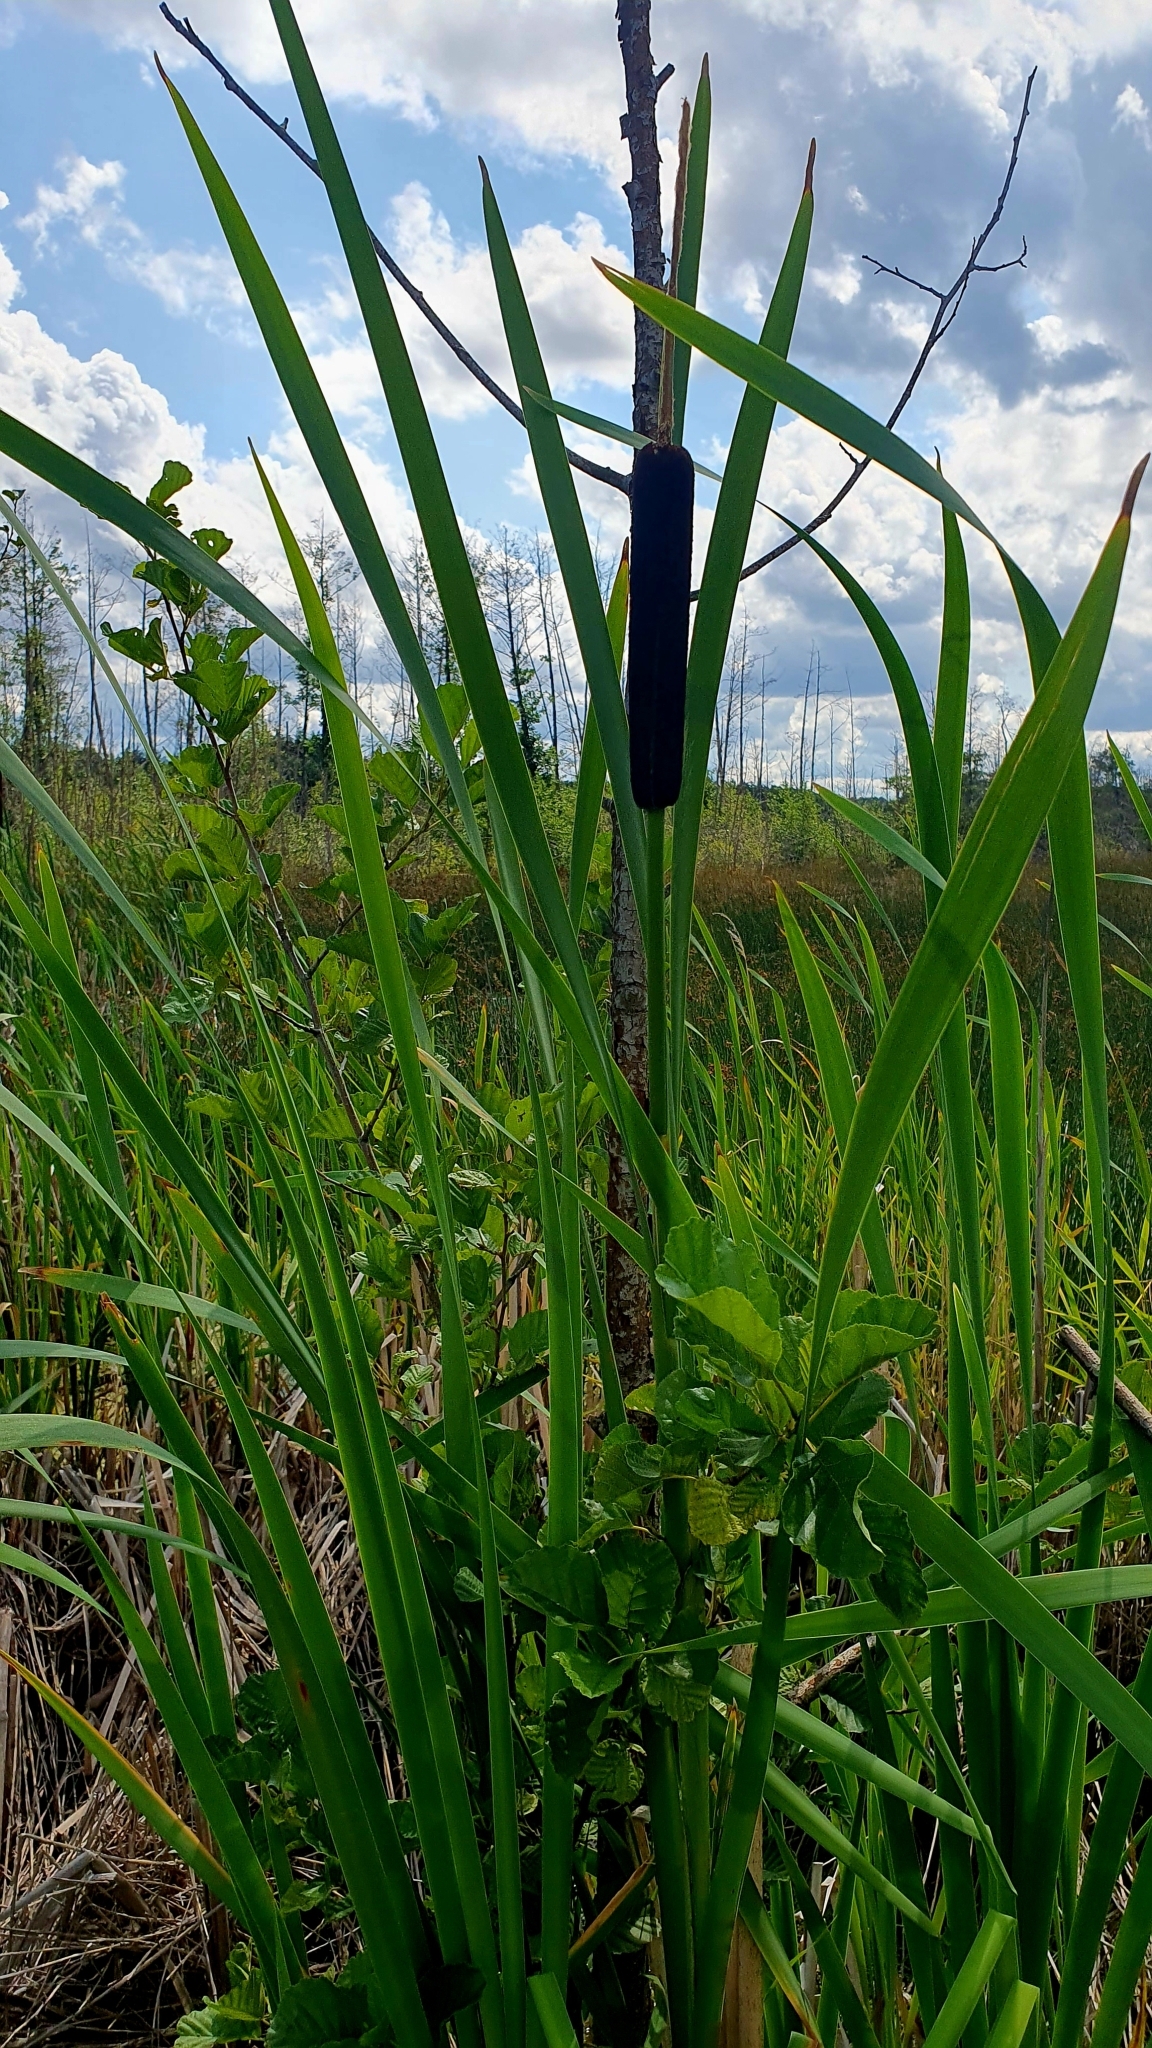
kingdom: Plantae
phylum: Tracheophyta
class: Liliopsida
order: Poales
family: Typhaceae
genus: Typha
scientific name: Typha latifolia
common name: Broadleaf cattail
